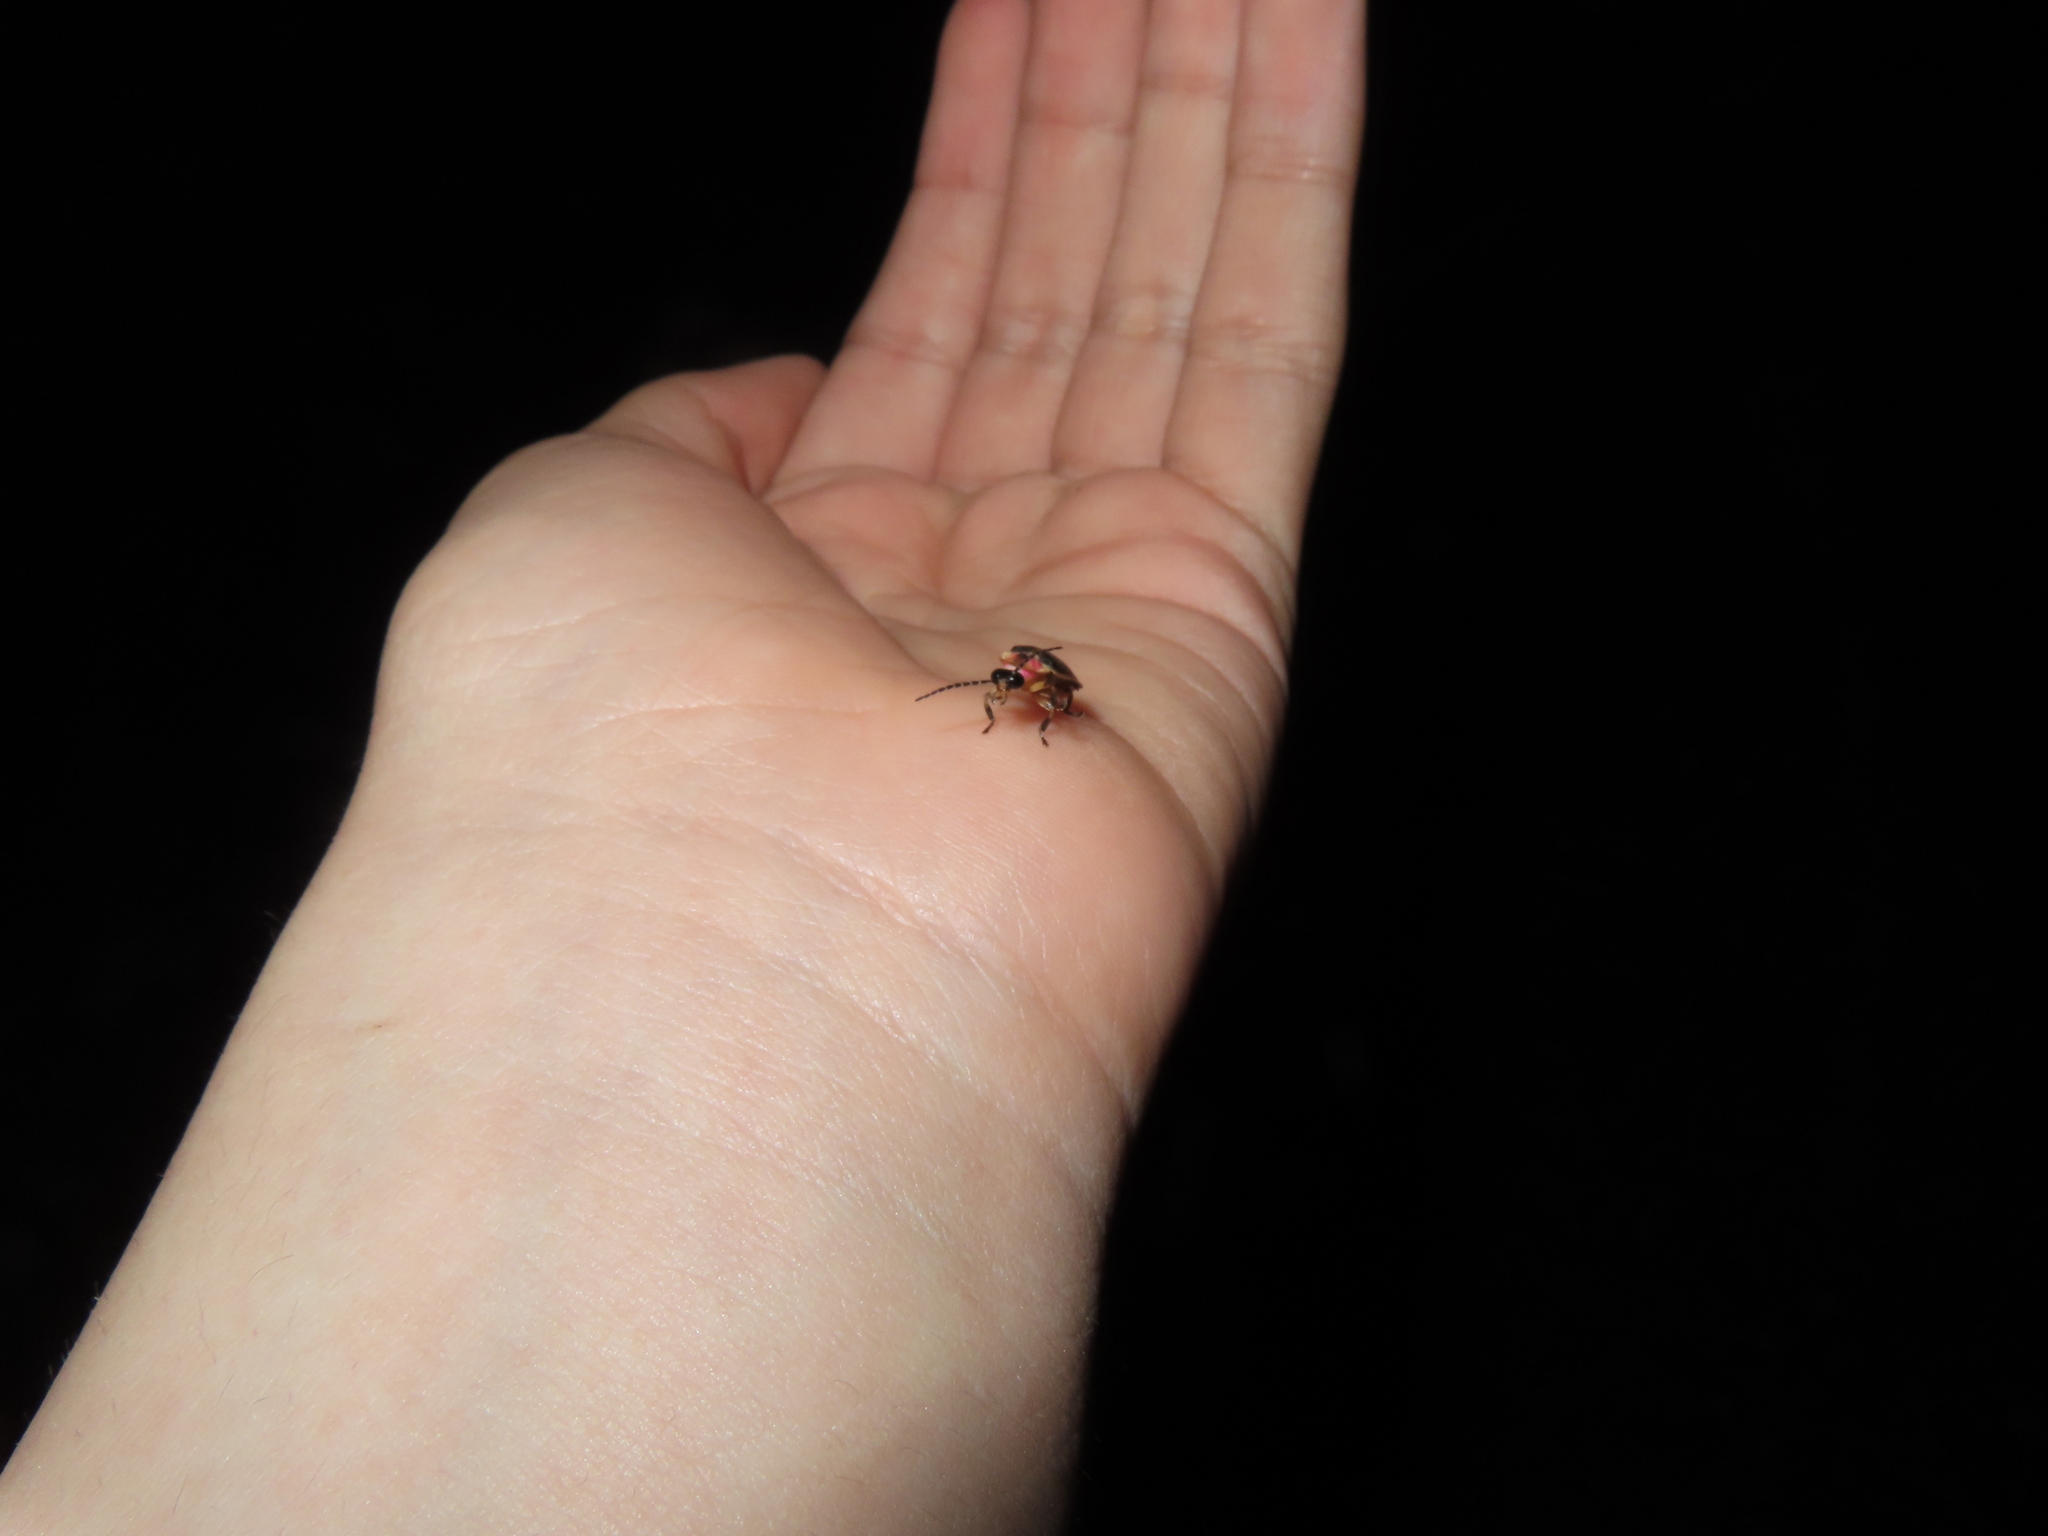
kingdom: Animalia
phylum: Arthropoda
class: Insecta
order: Coleoptera
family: Lampyridae
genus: Photinus
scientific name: Photinus pyralis
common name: Big dipper firefly
